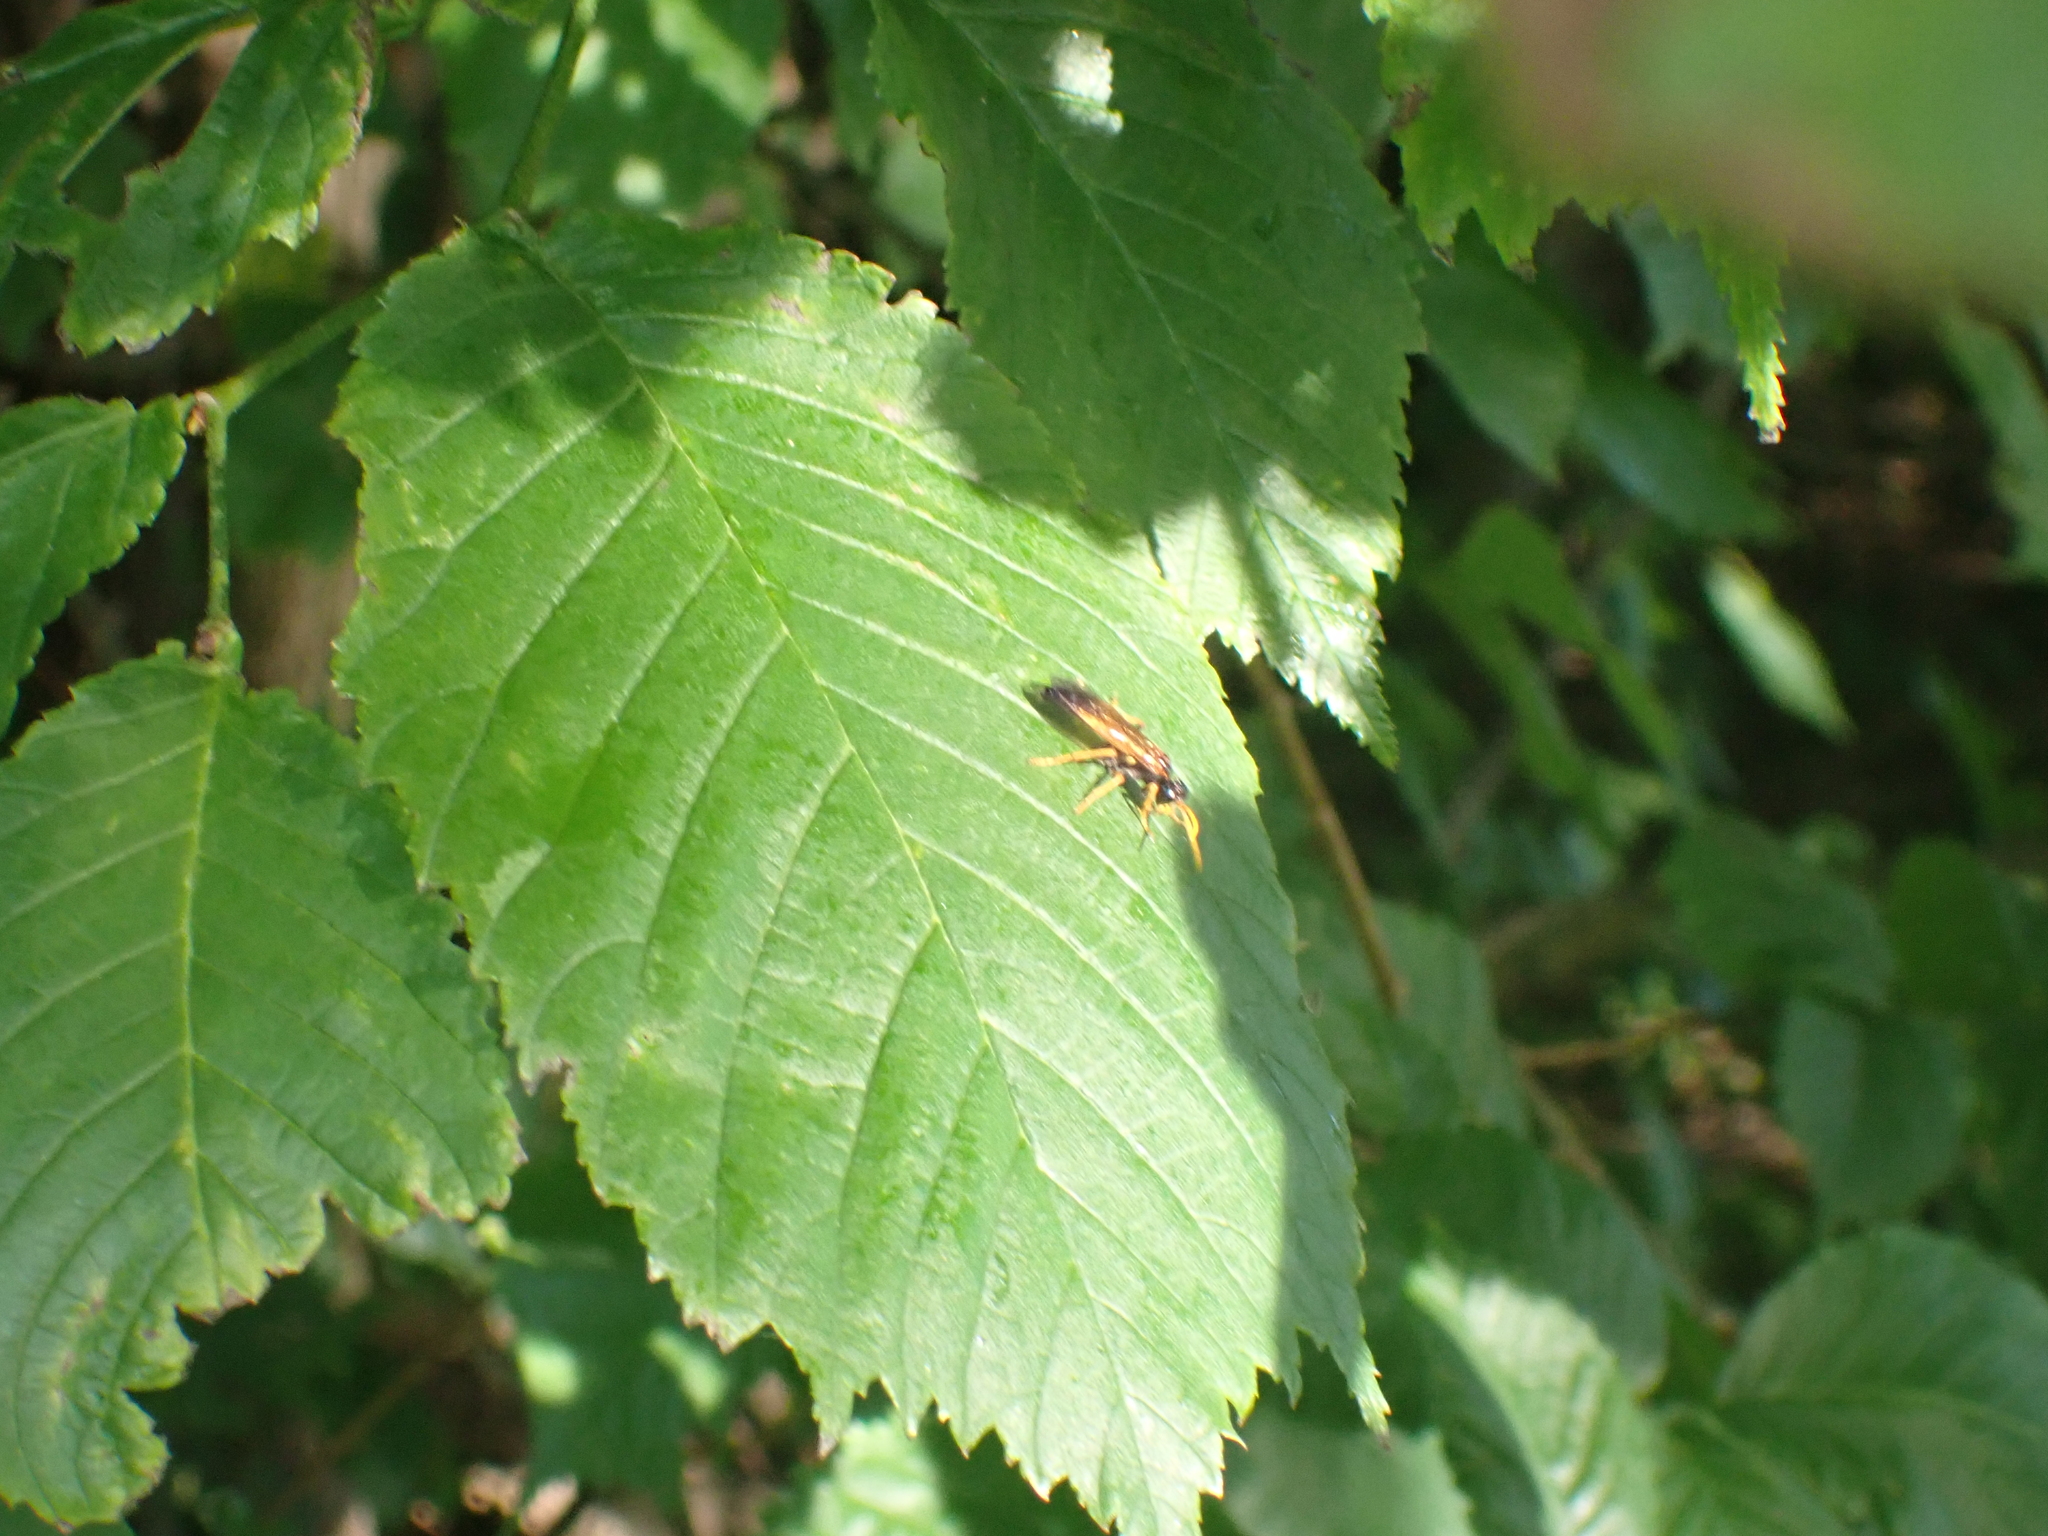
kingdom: Animalia
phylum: Arthropoda
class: Insecta
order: Hymenoptera
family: Tenthredinidae
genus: Tenthredo
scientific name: Tenthredo campestris
